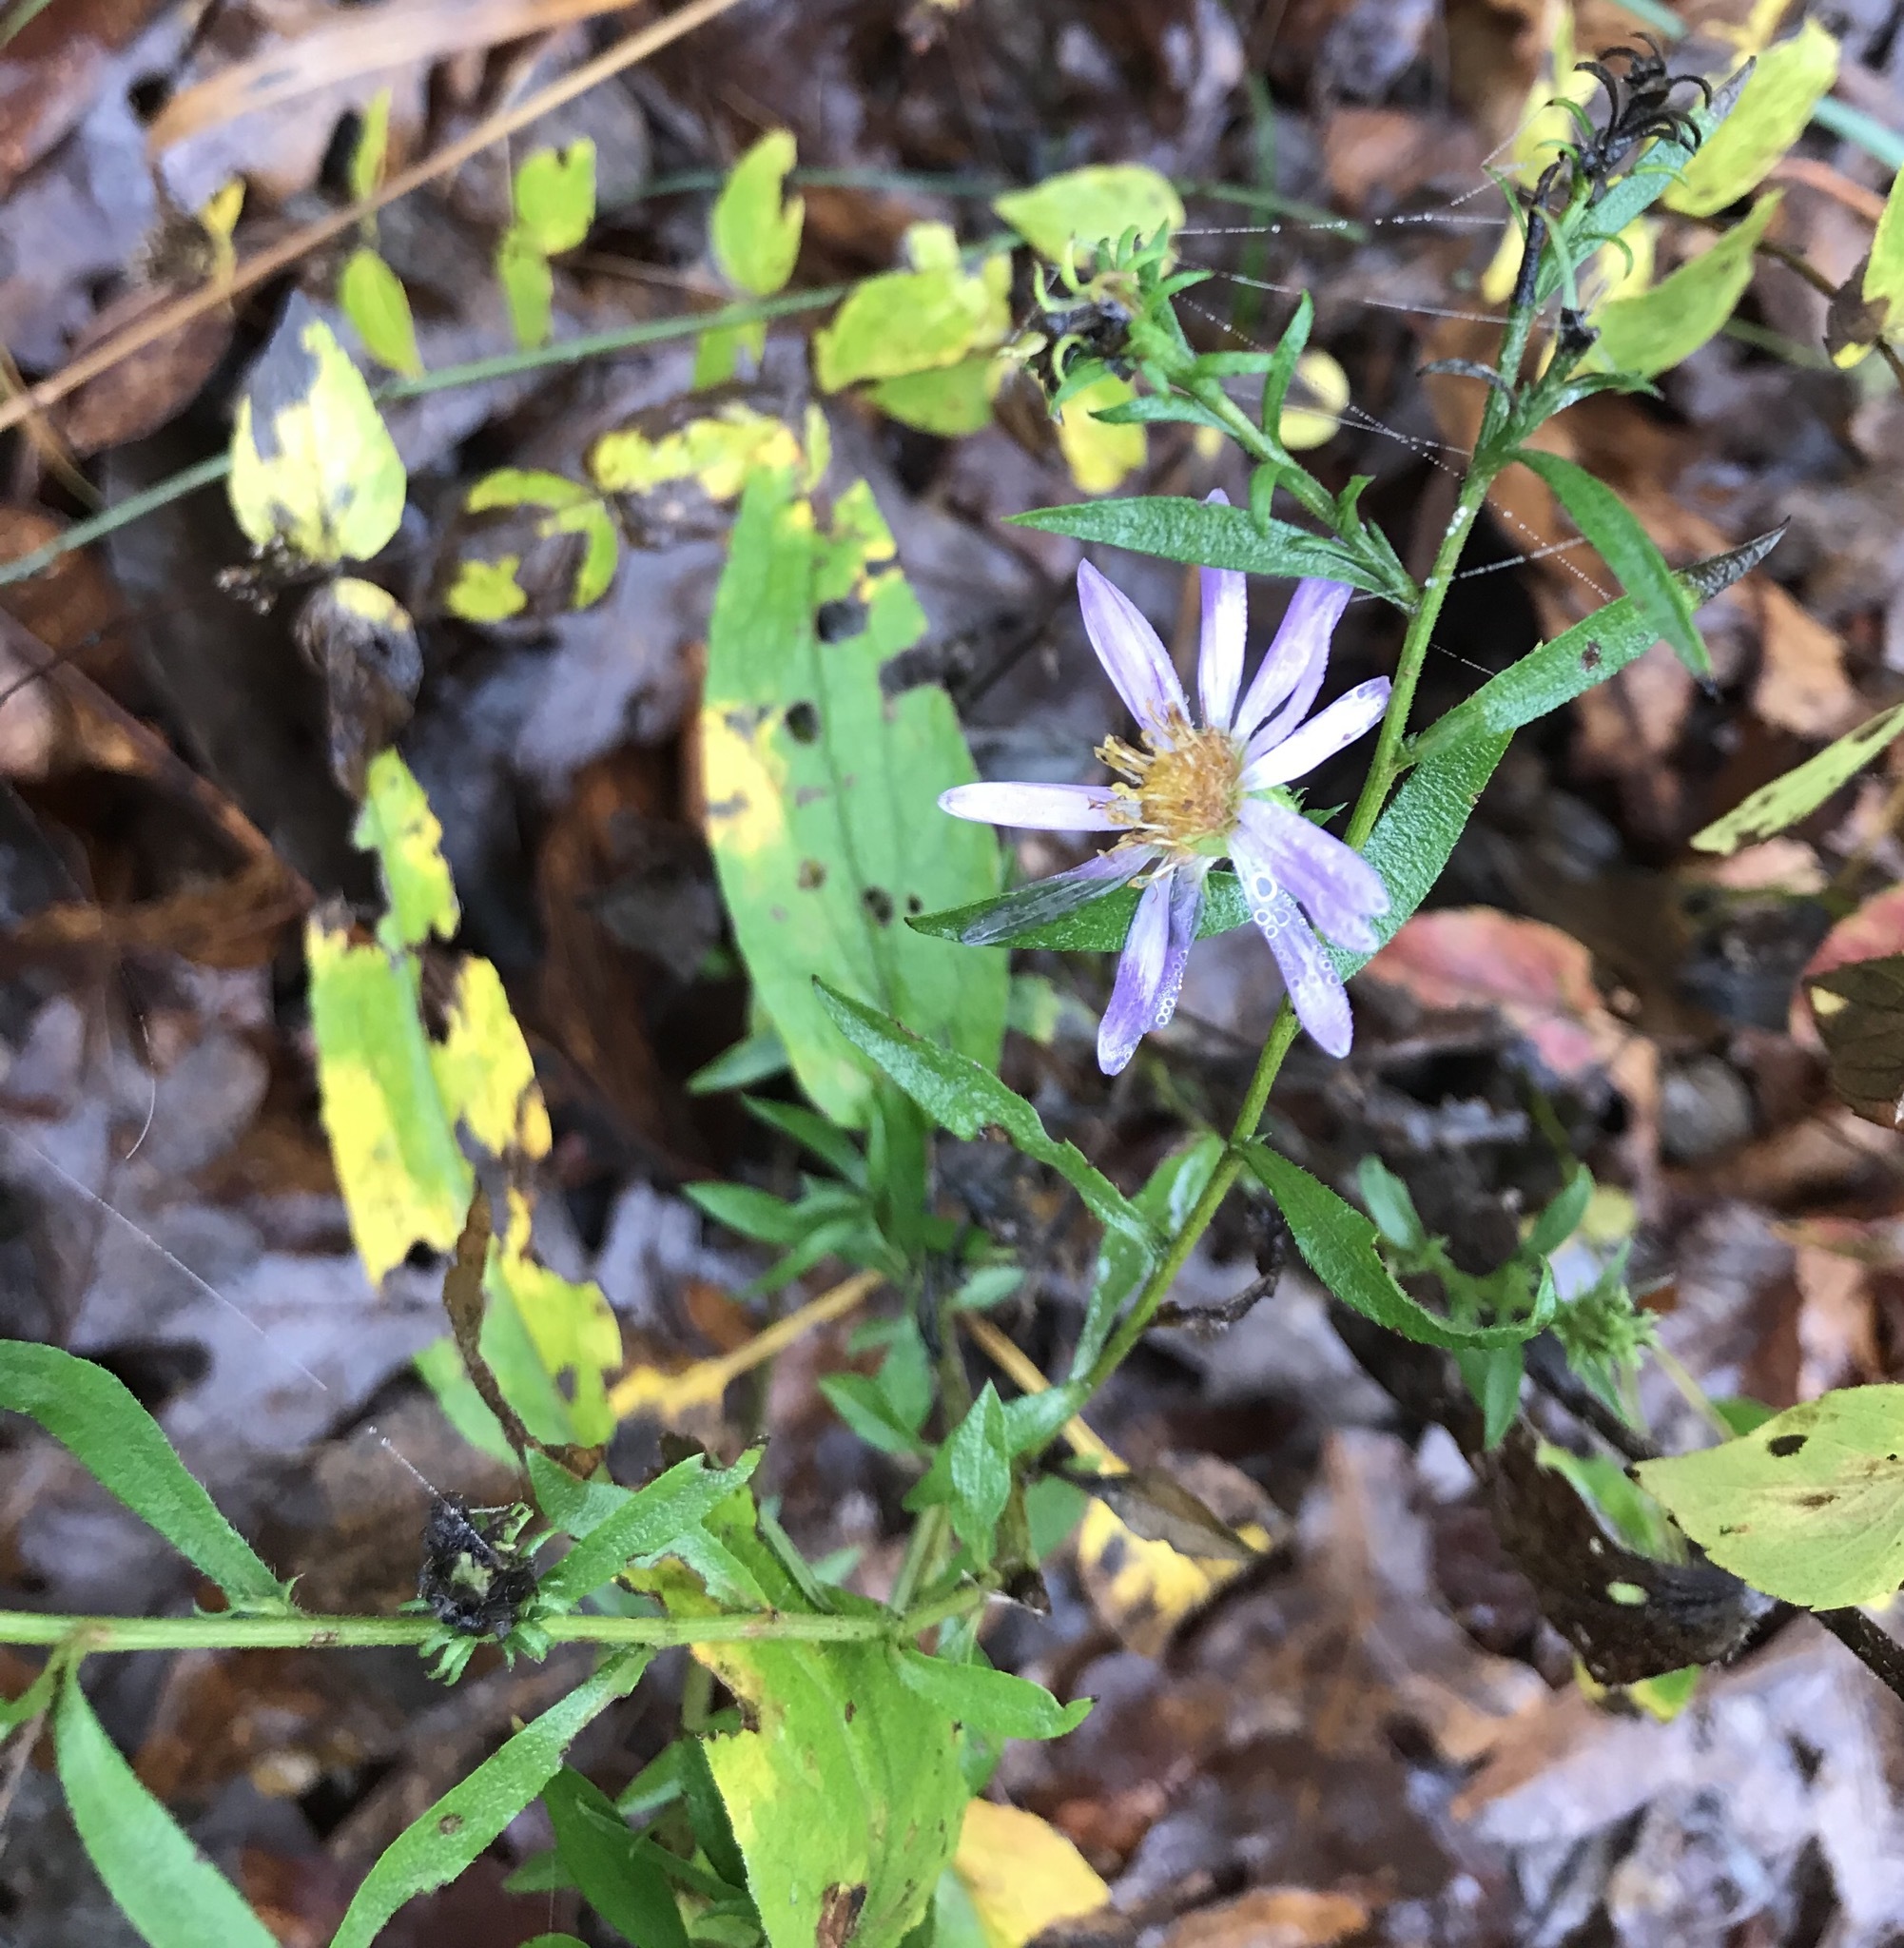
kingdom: Plantae
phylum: Tracheophyta
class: Magnoliopsida
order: Asterales
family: Asteraceae
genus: Eurybia
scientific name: Eurybia hemispherica
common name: Showy aster
